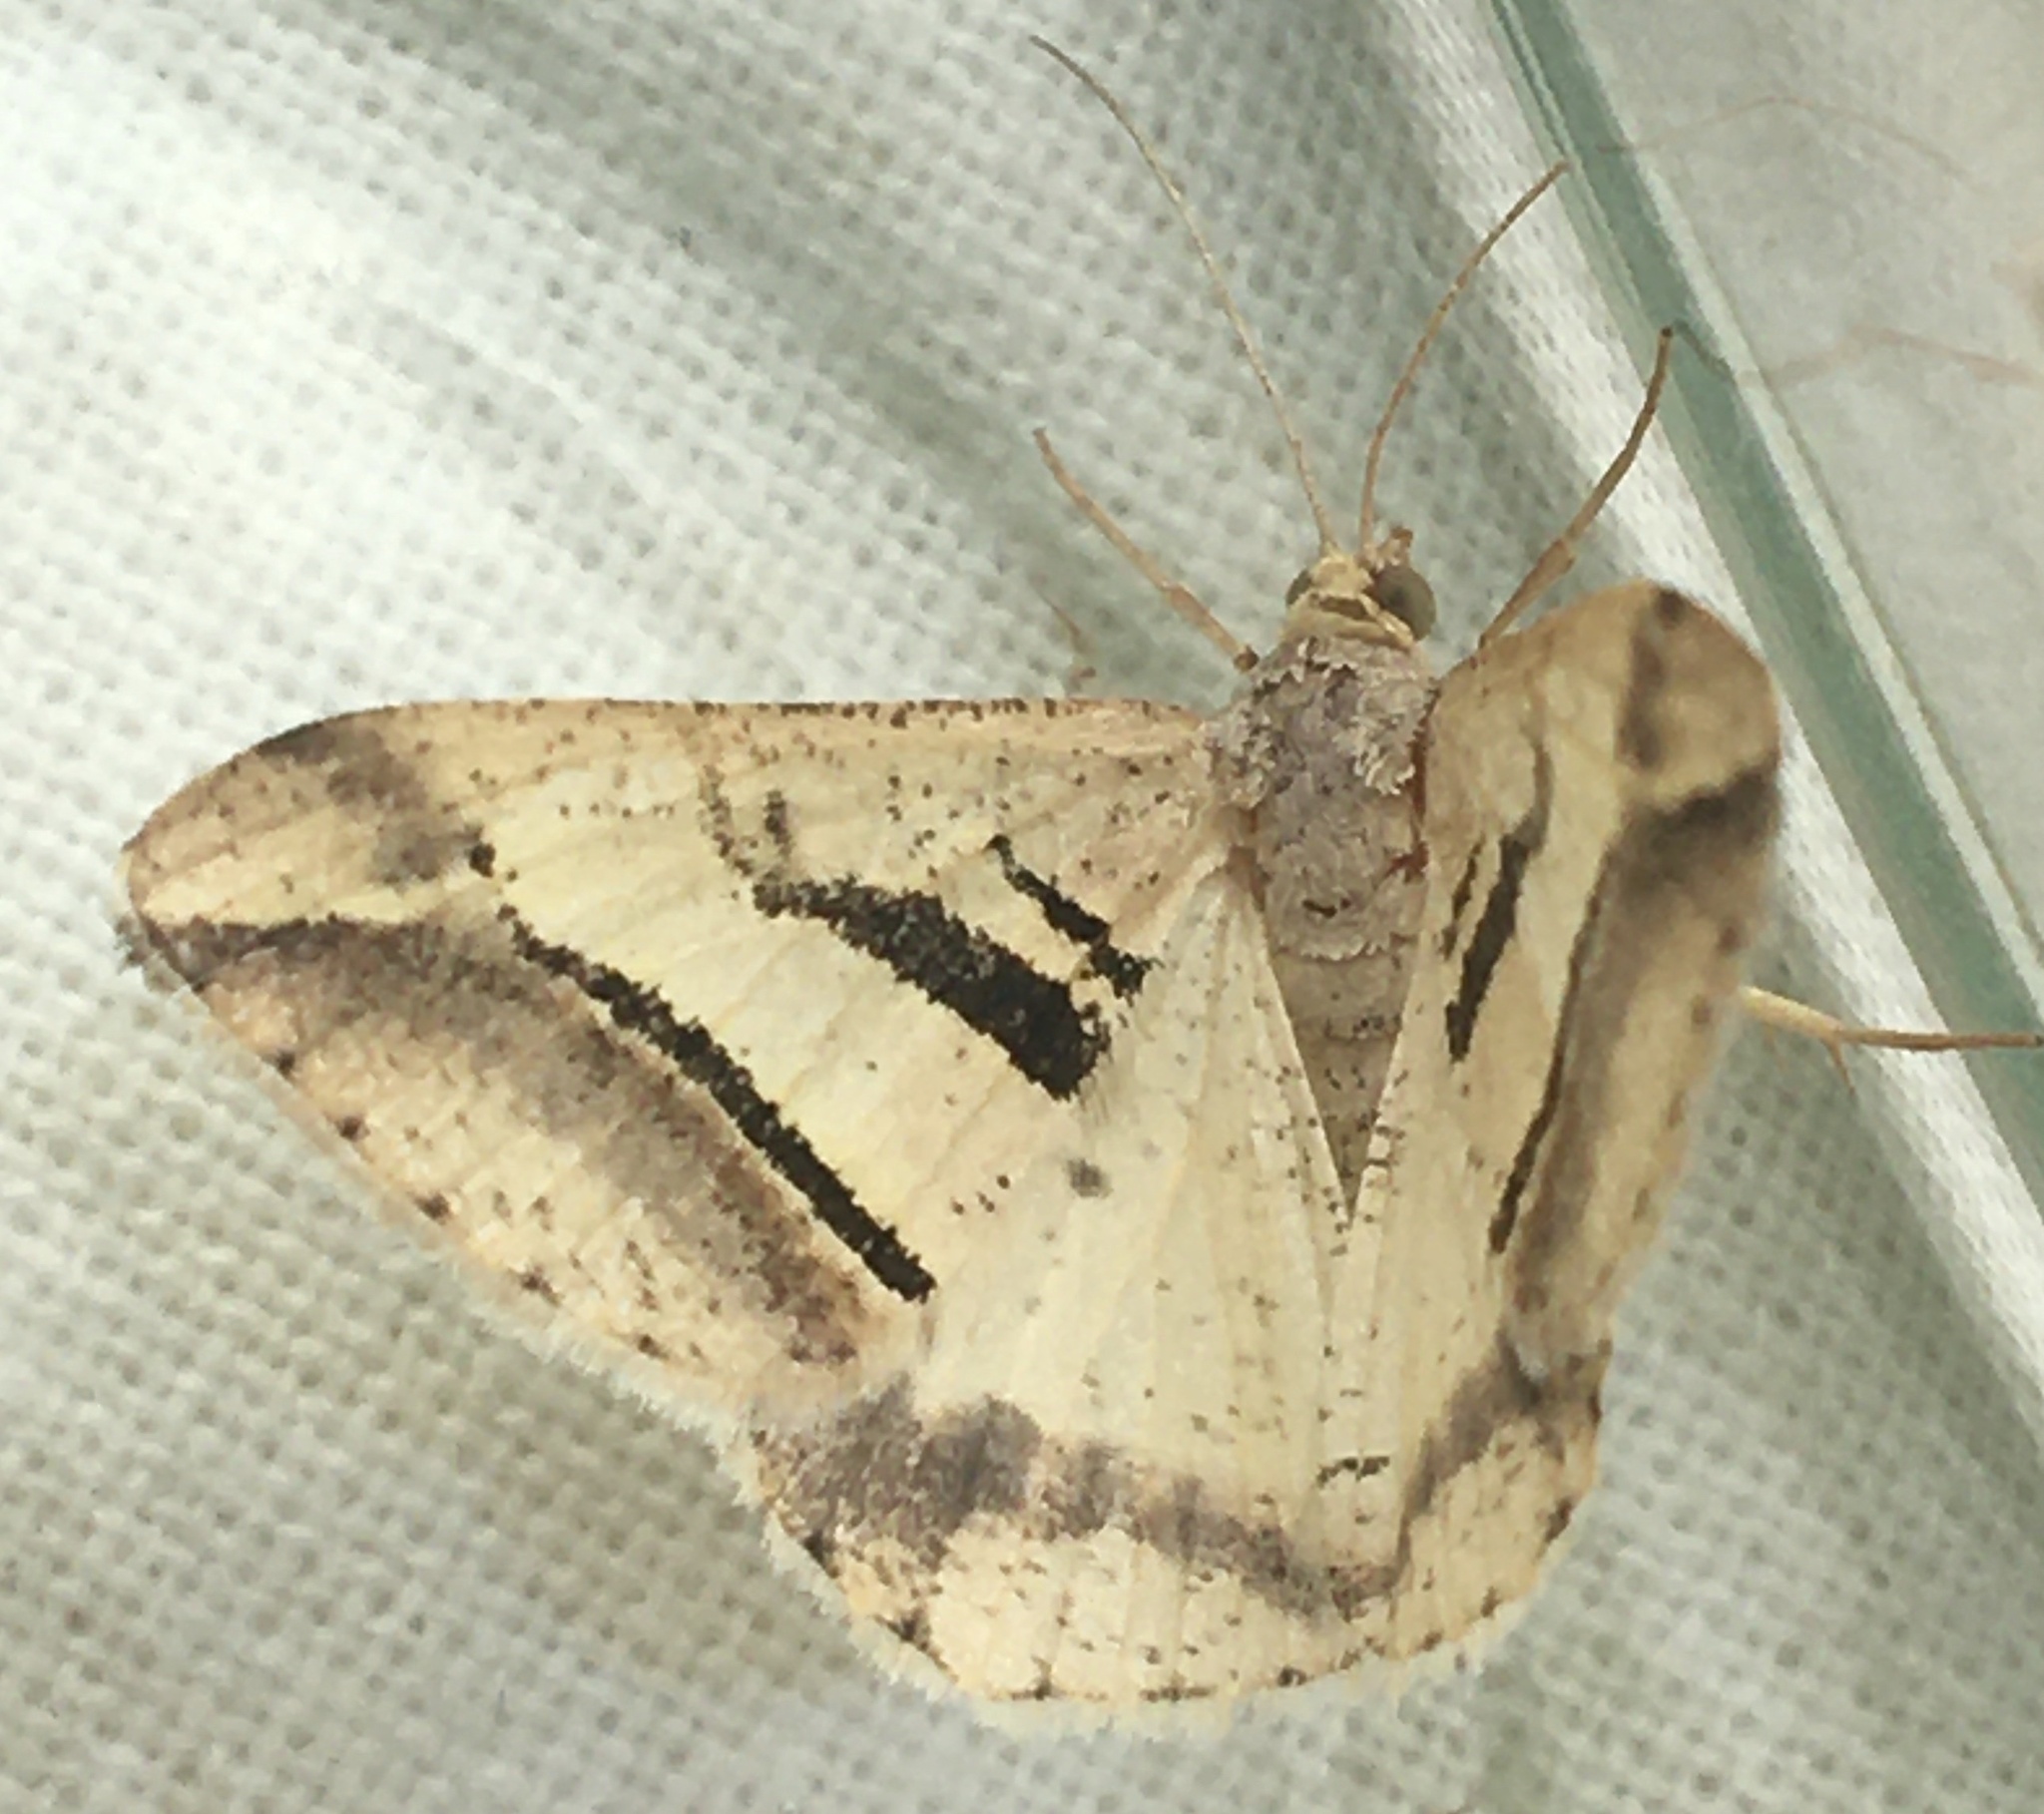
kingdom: Animalia
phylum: Arthropoda
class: Insecta
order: Lepidoptera
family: Geometridae
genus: Chiasmia
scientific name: Chiasmia subcurvaria
